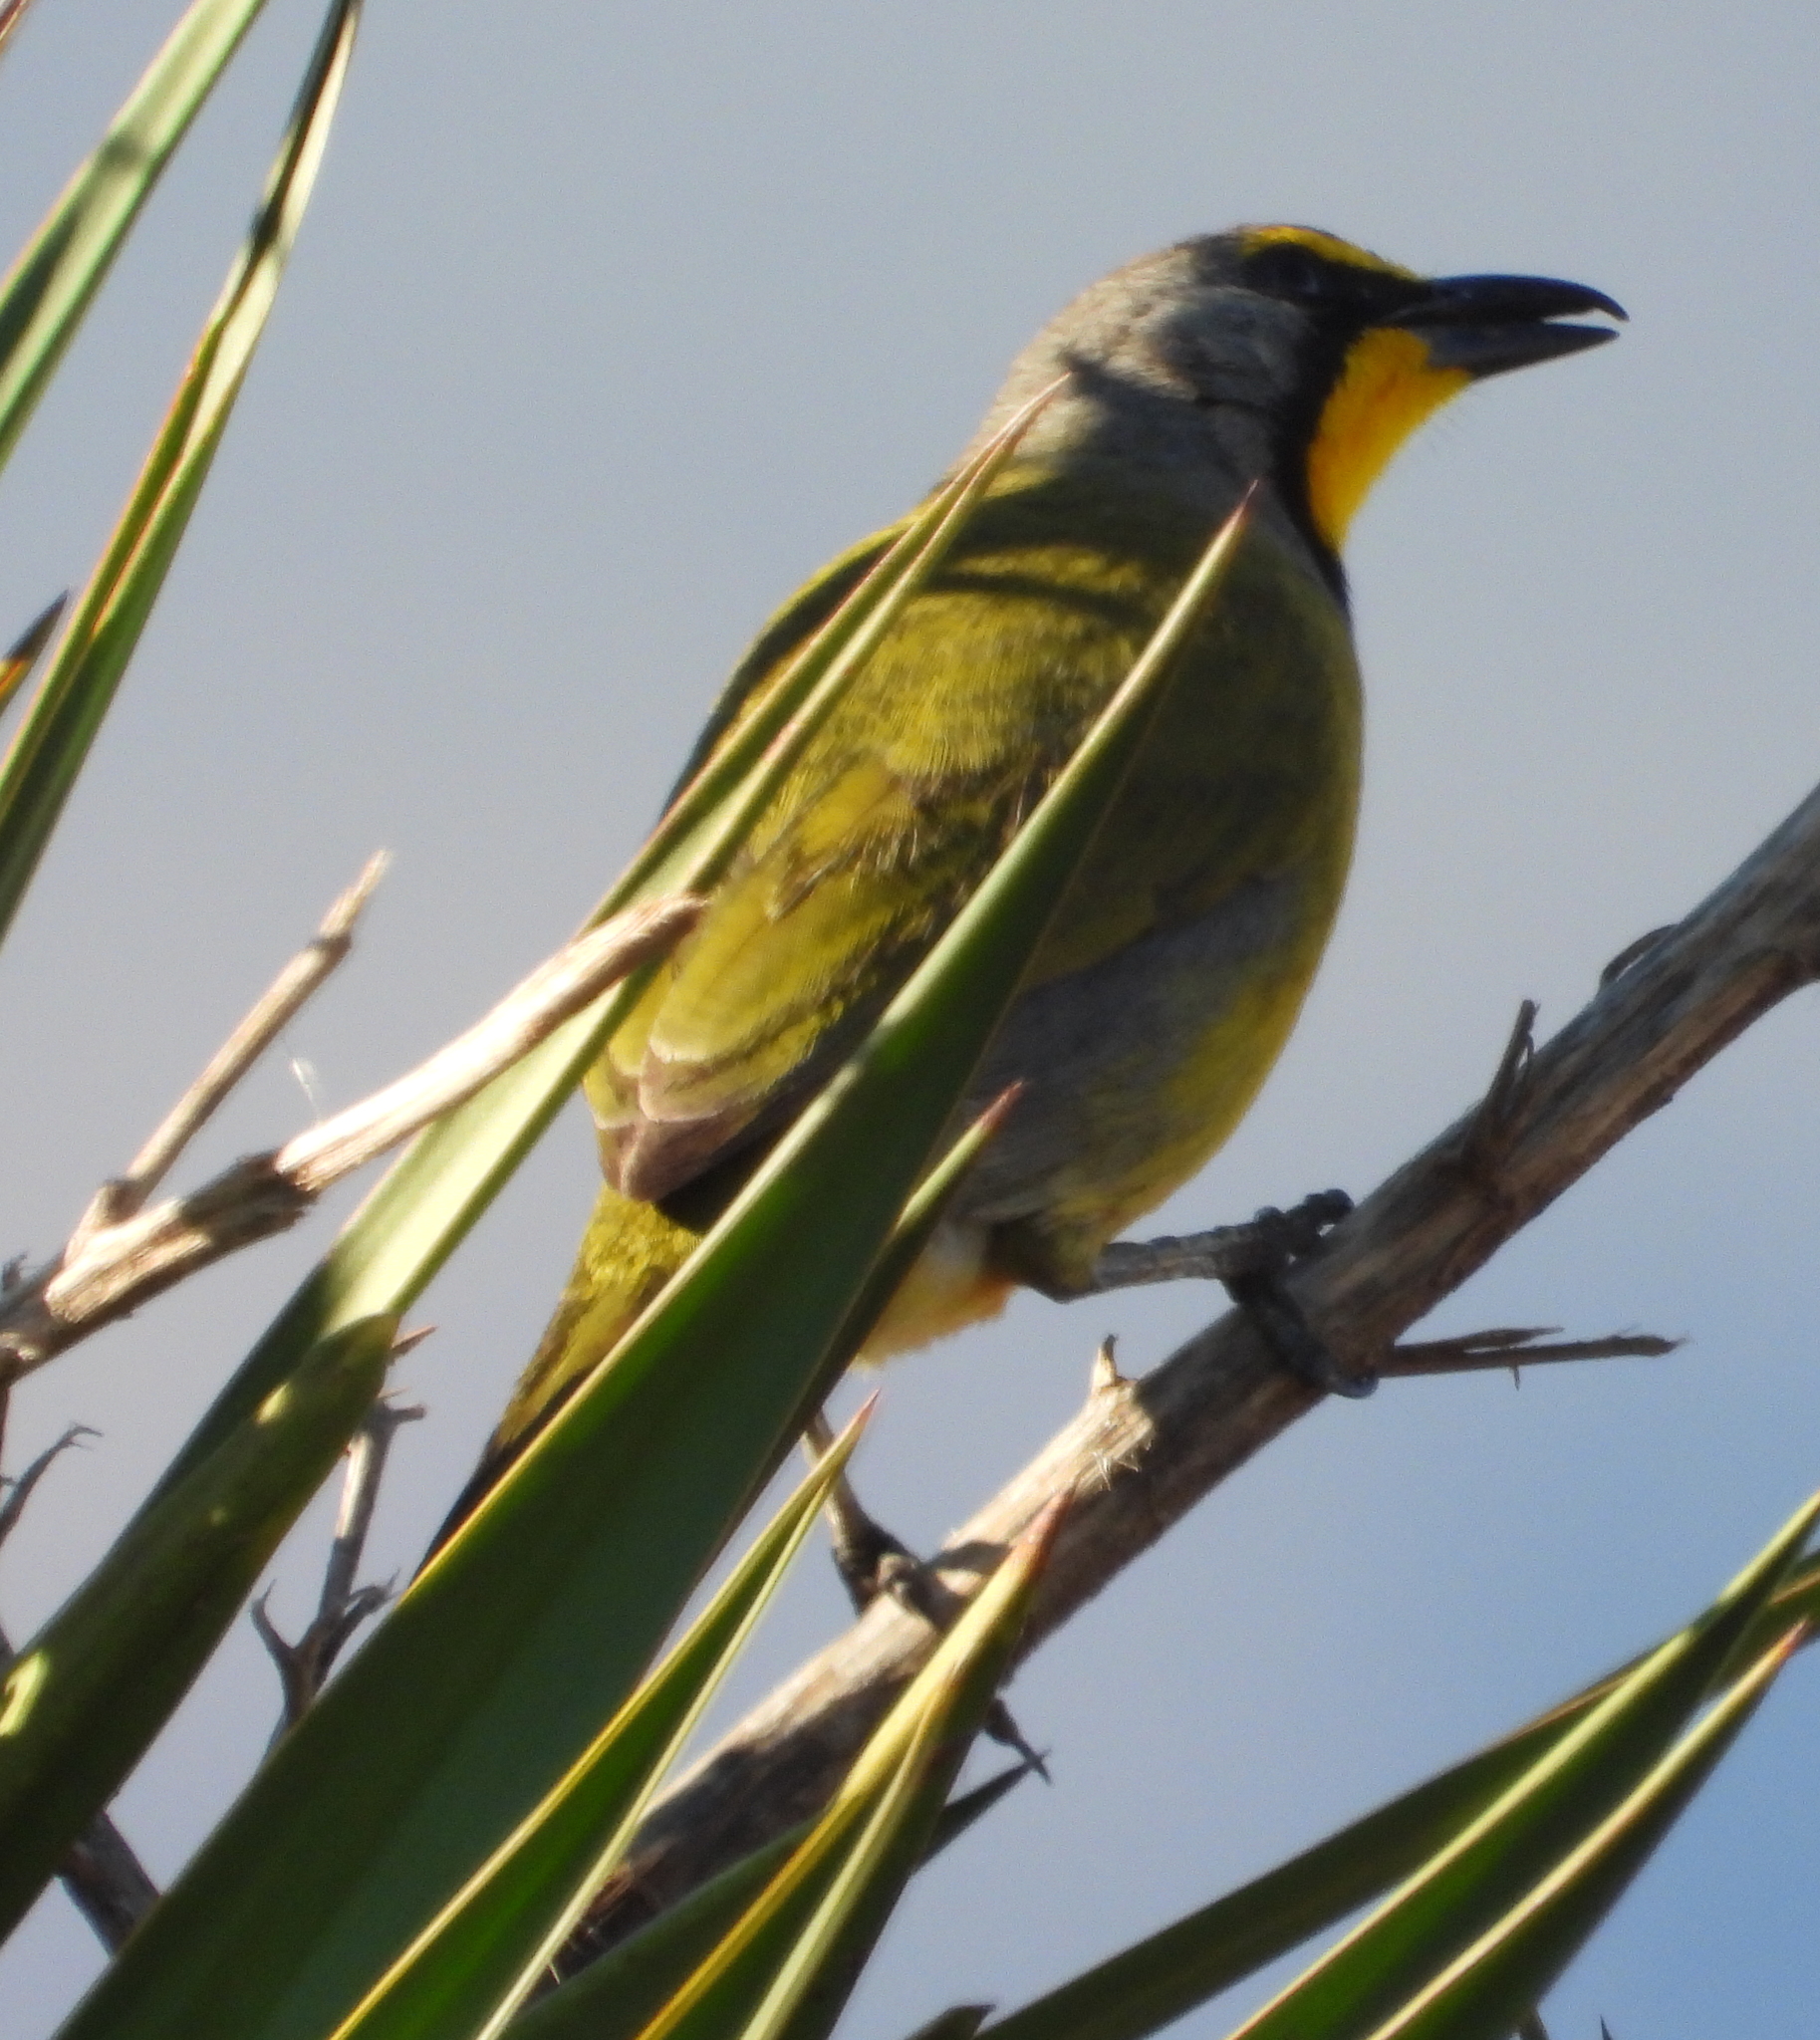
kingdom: Animalia
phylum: Chordata
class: Aves
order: Passeriformes
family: Malaconotidae
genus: Telophorus
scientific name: Telophorus zeylonus
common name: Bokmakierie
